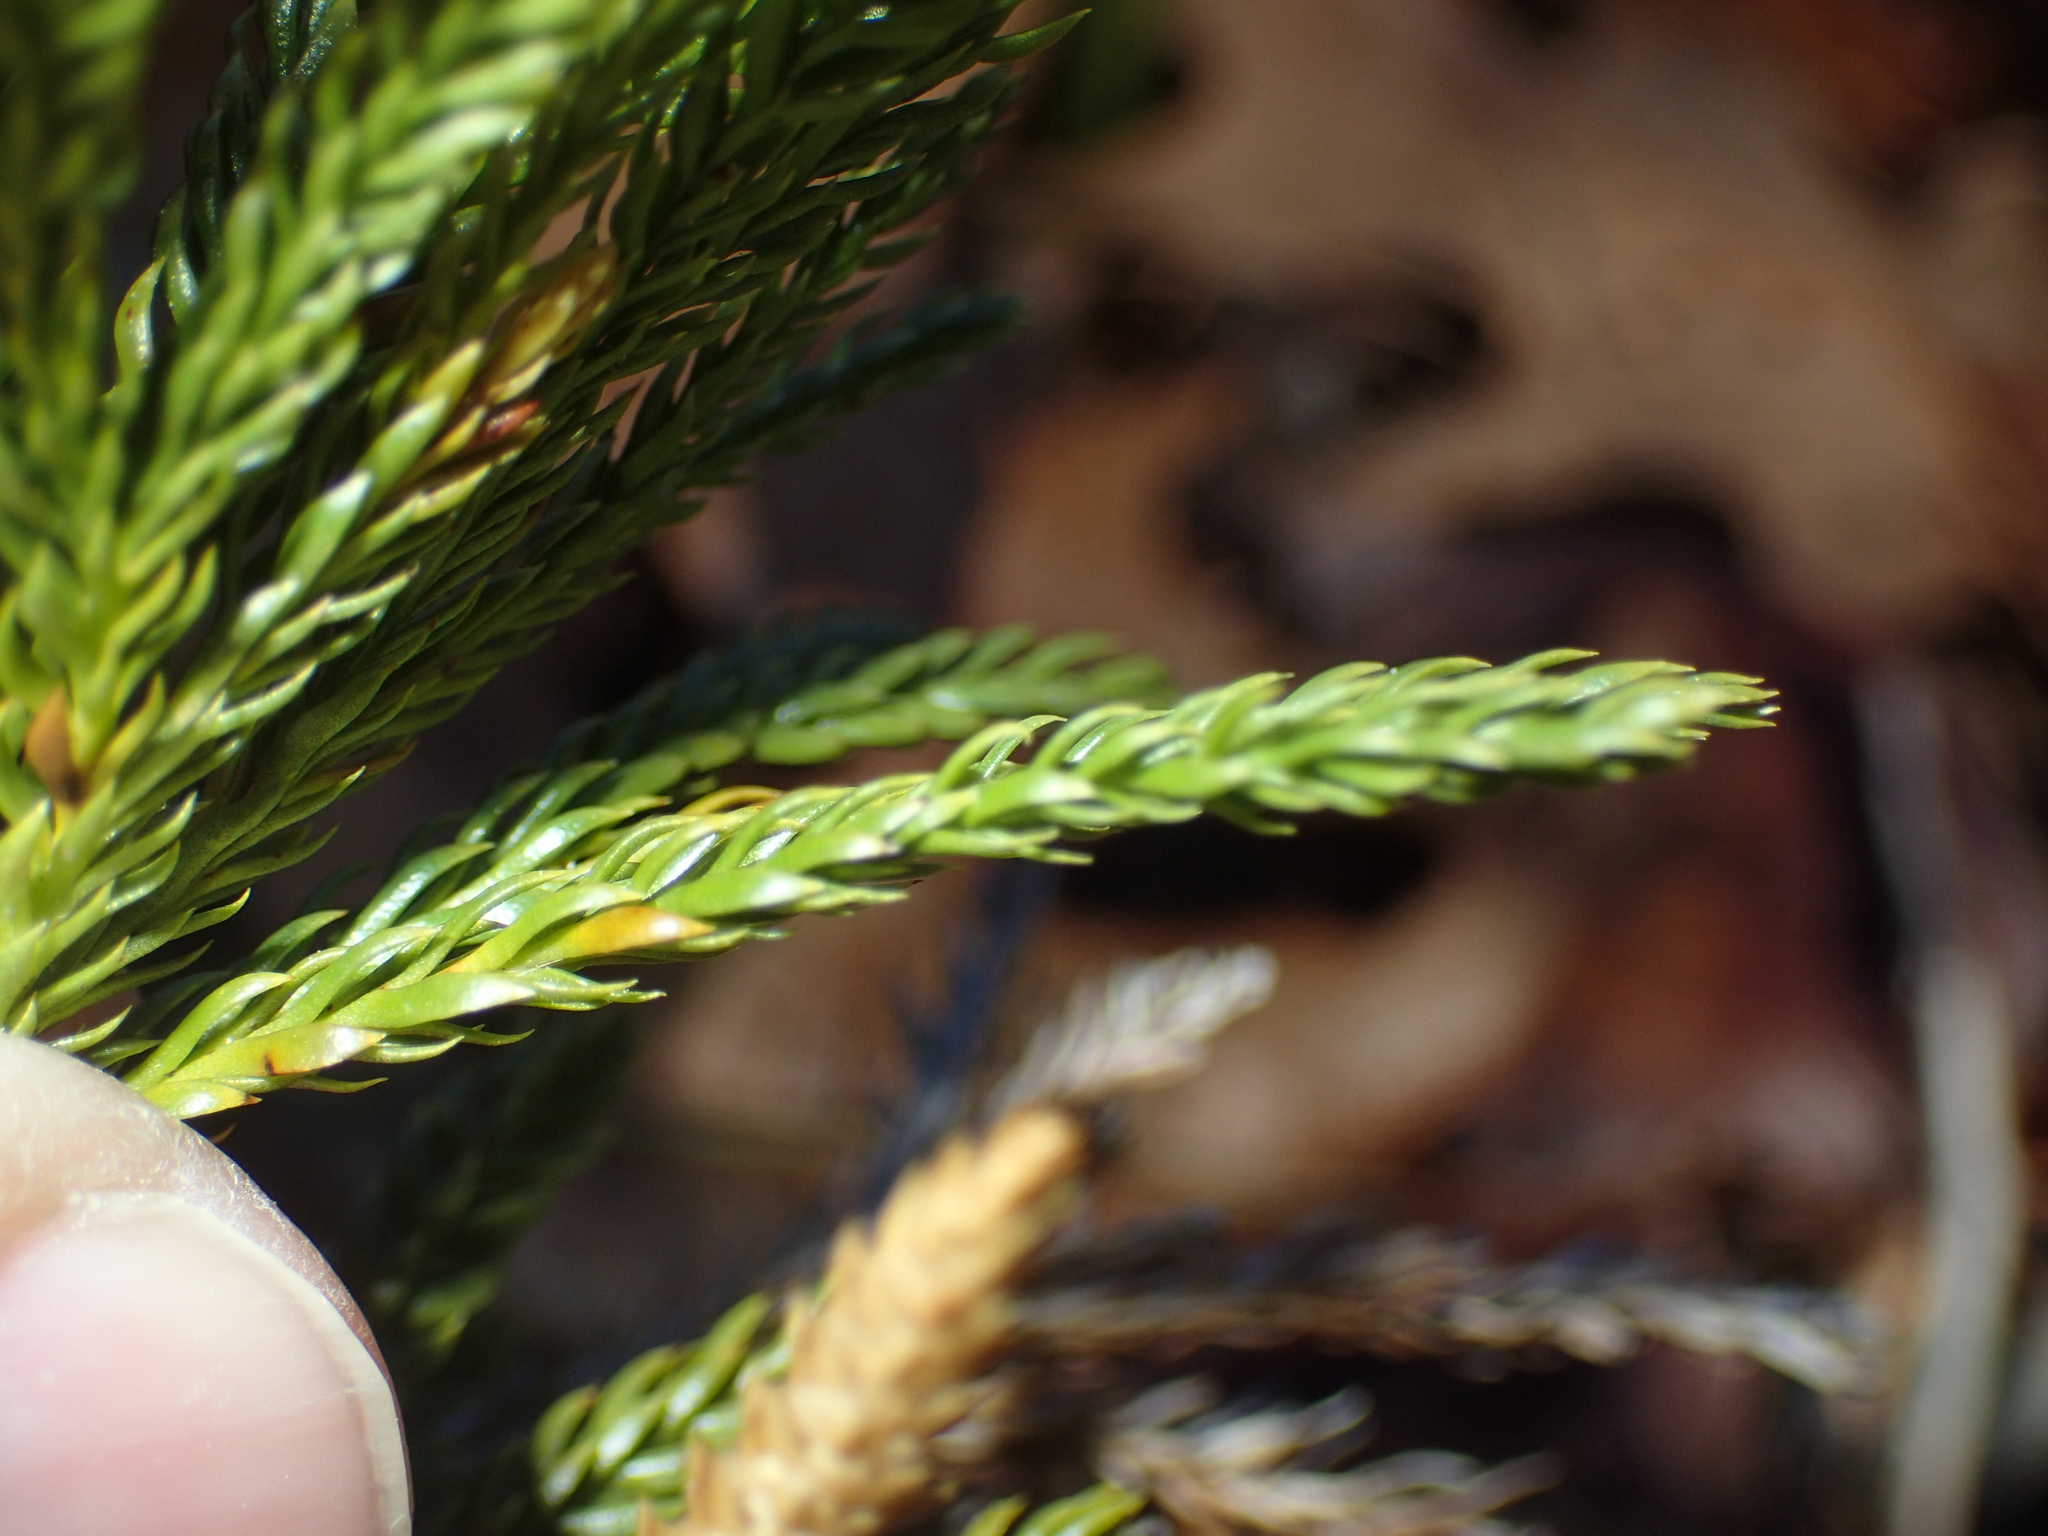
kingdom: Plantae
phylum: Tracheophyta
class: Lycopodiopsida
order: Lycopodiales
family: Lycopodiaceae
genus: Dendrolycopodium
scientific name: Dendrolycopodium obscurum
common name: Common ground-pine
